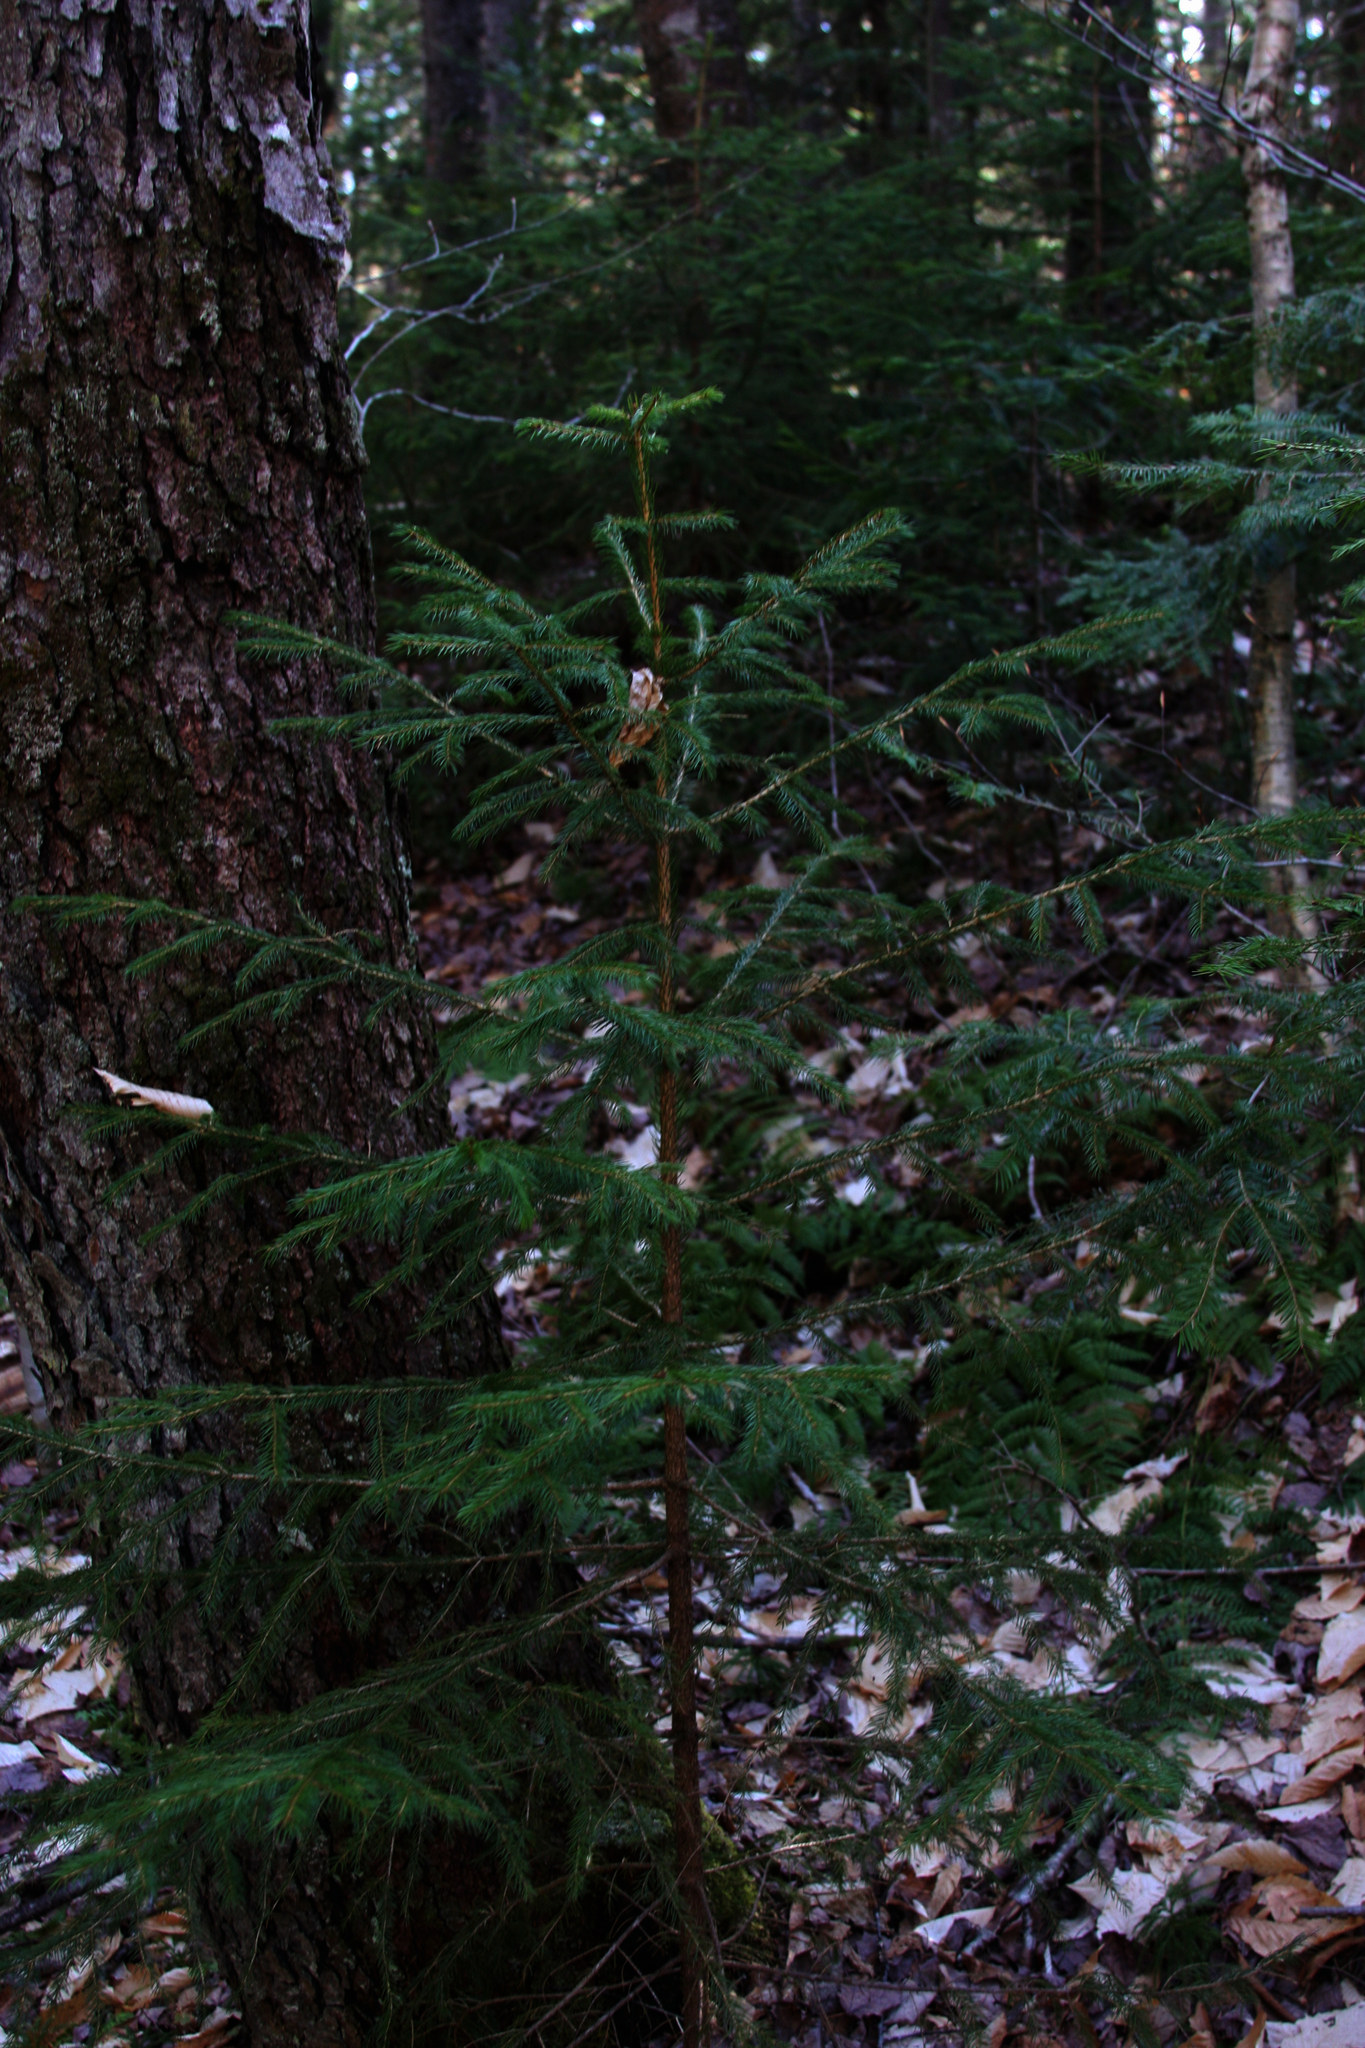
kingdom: Plantae
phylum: Tracheophyta
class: Pinopsida
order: Pinales
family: Pinaceae
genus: Picea
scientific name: Picea rubens
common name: Red spruce
